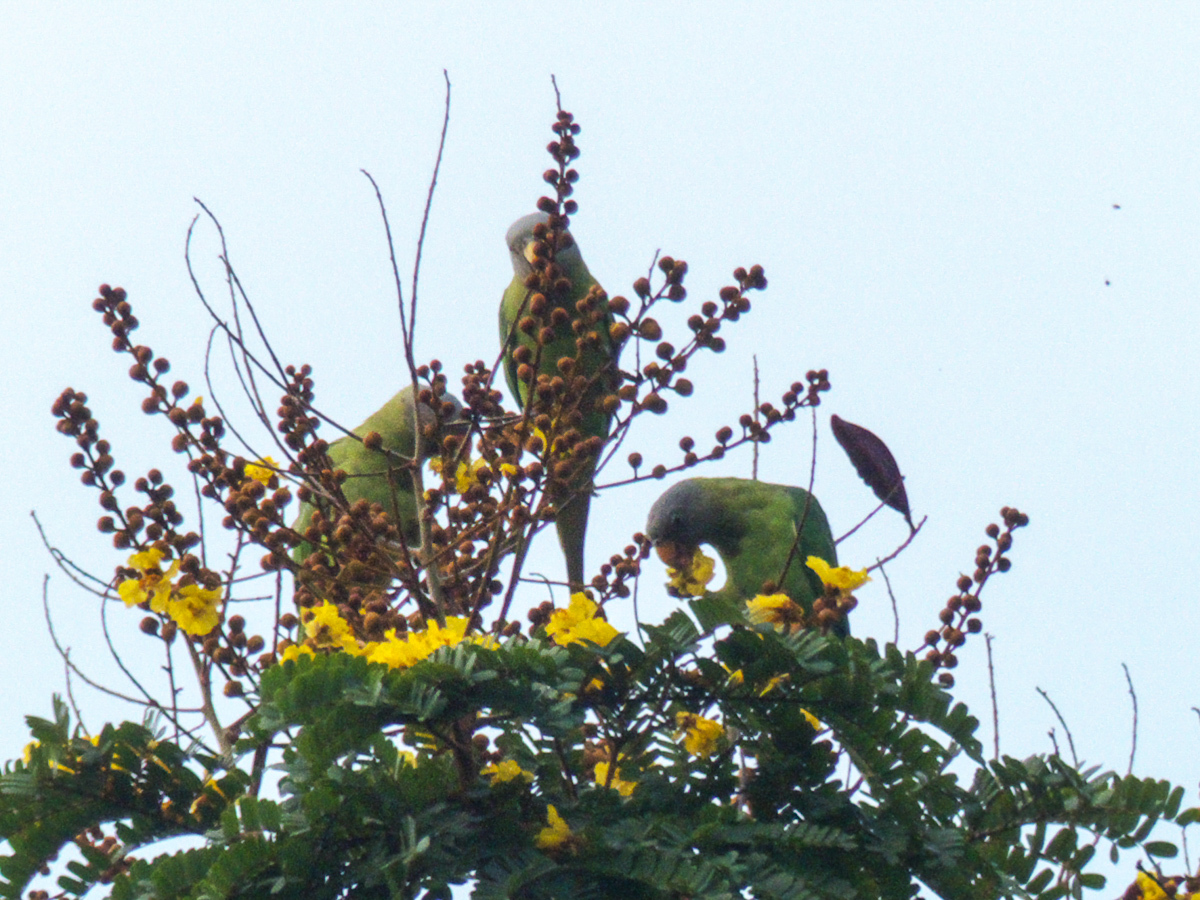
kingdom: Animalia
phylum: Chordata
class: Aves
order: Psittaciformes
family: Psittacidae
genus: Psittacula
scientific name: Psittacula roseata
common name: Blossom-headed parakeet
